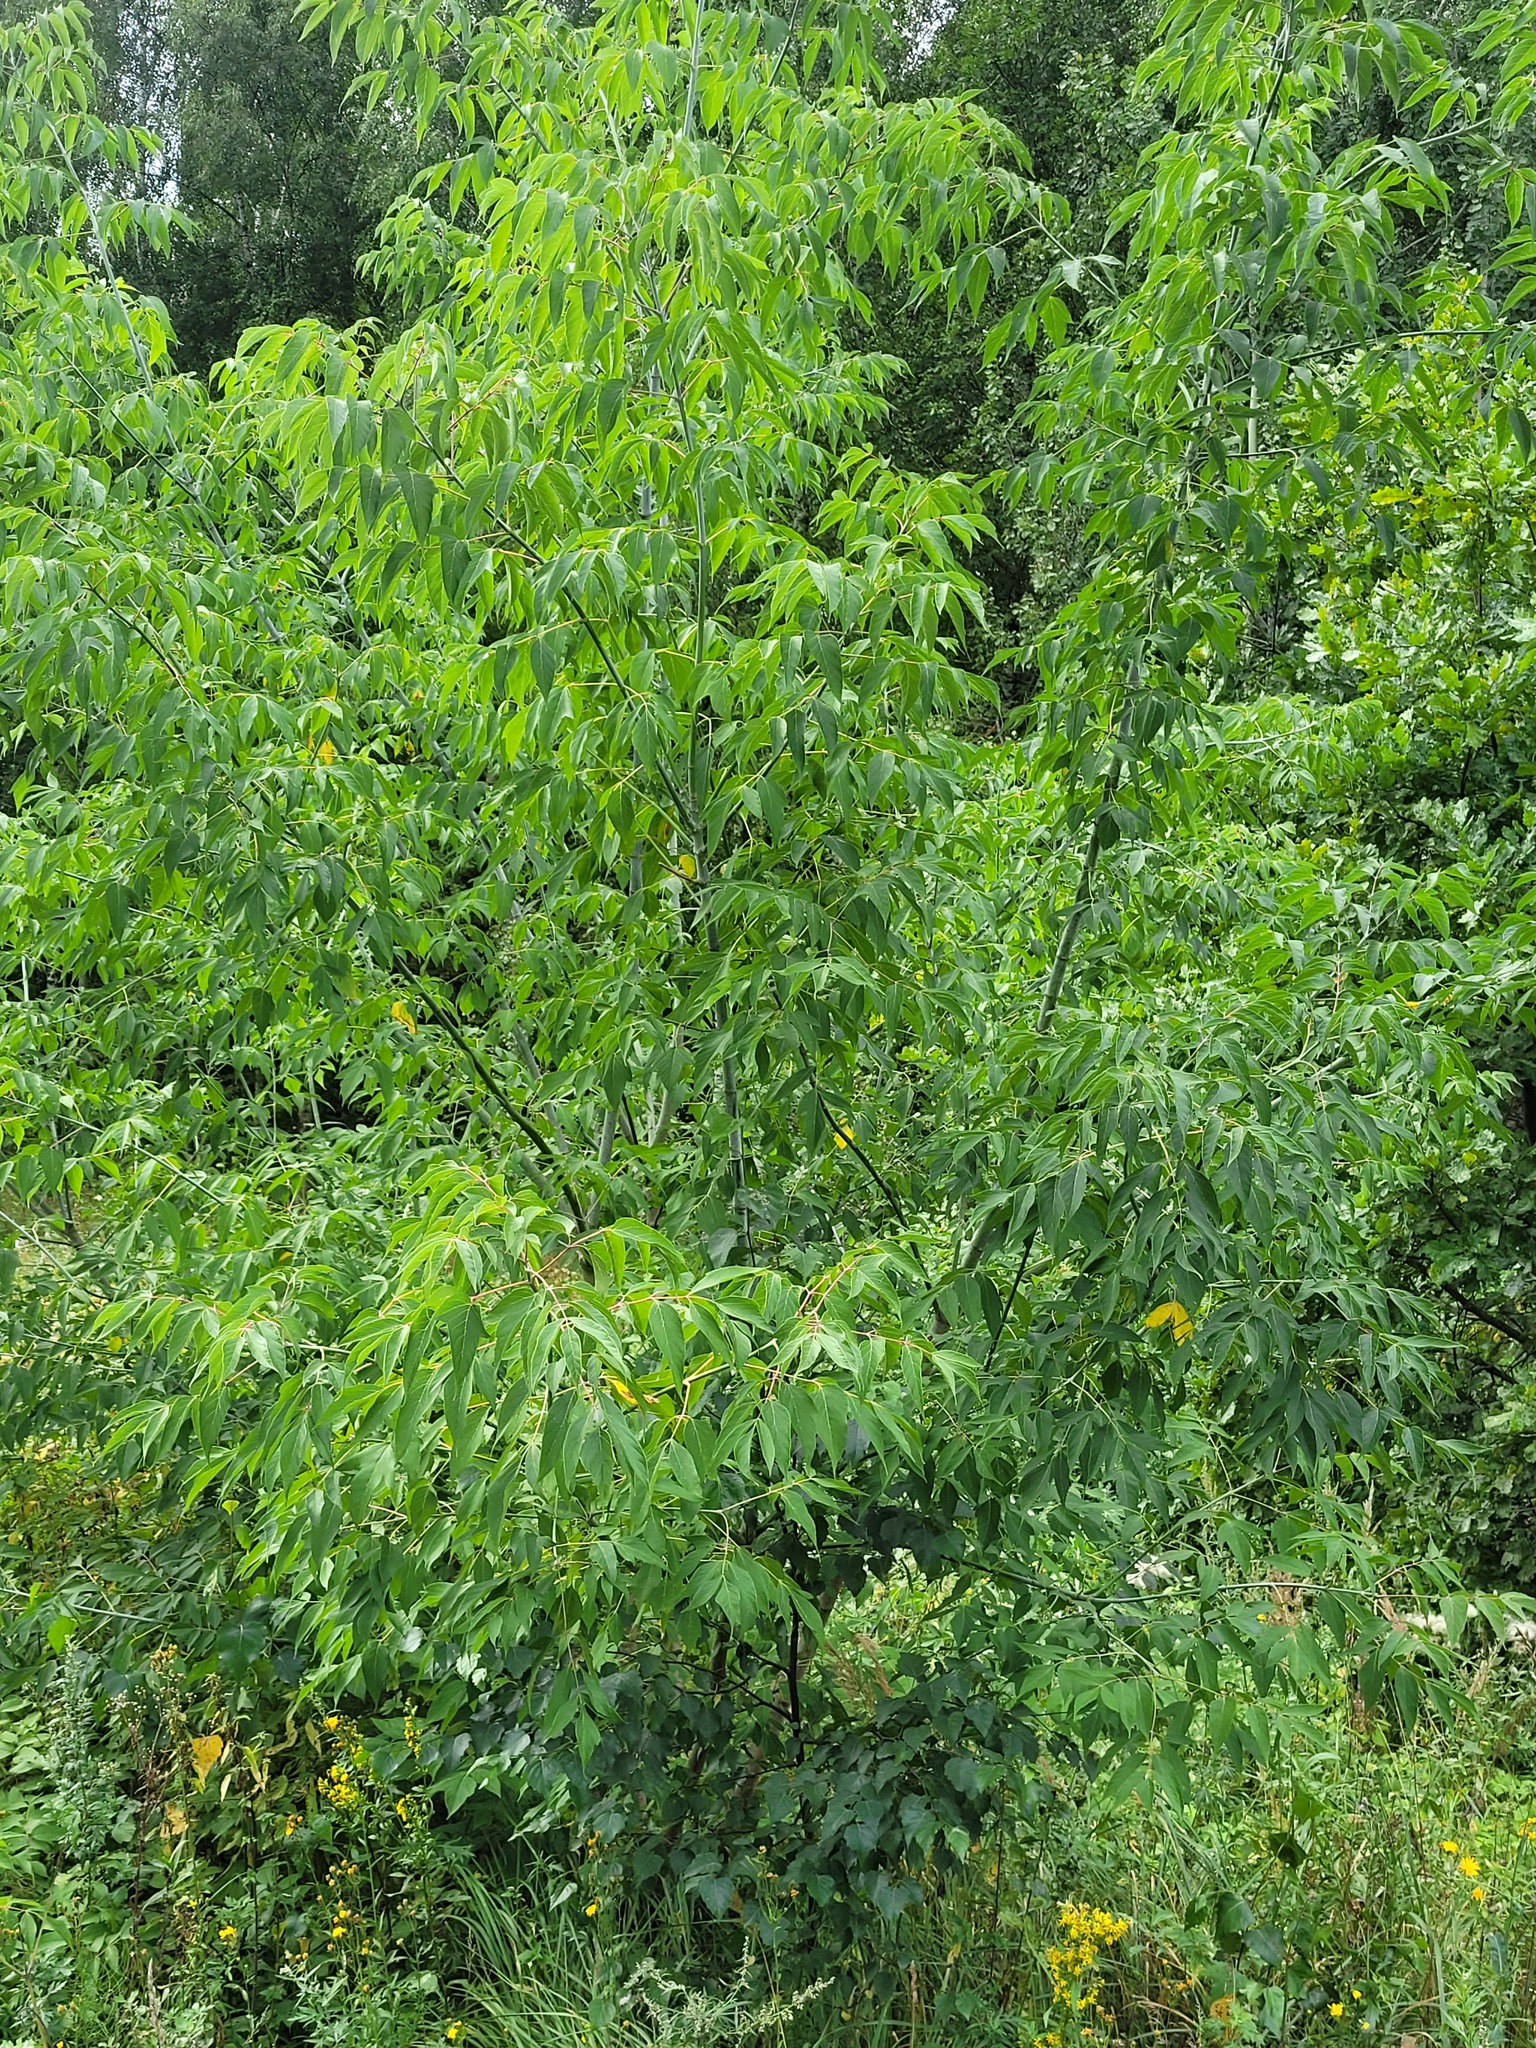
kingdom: Plantae
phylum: Tracheophyta
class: Magnoliopsida
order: Sapindales
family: Sapindaceae
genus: Acer
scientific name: Acer negundo
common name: Ashleaf maple
